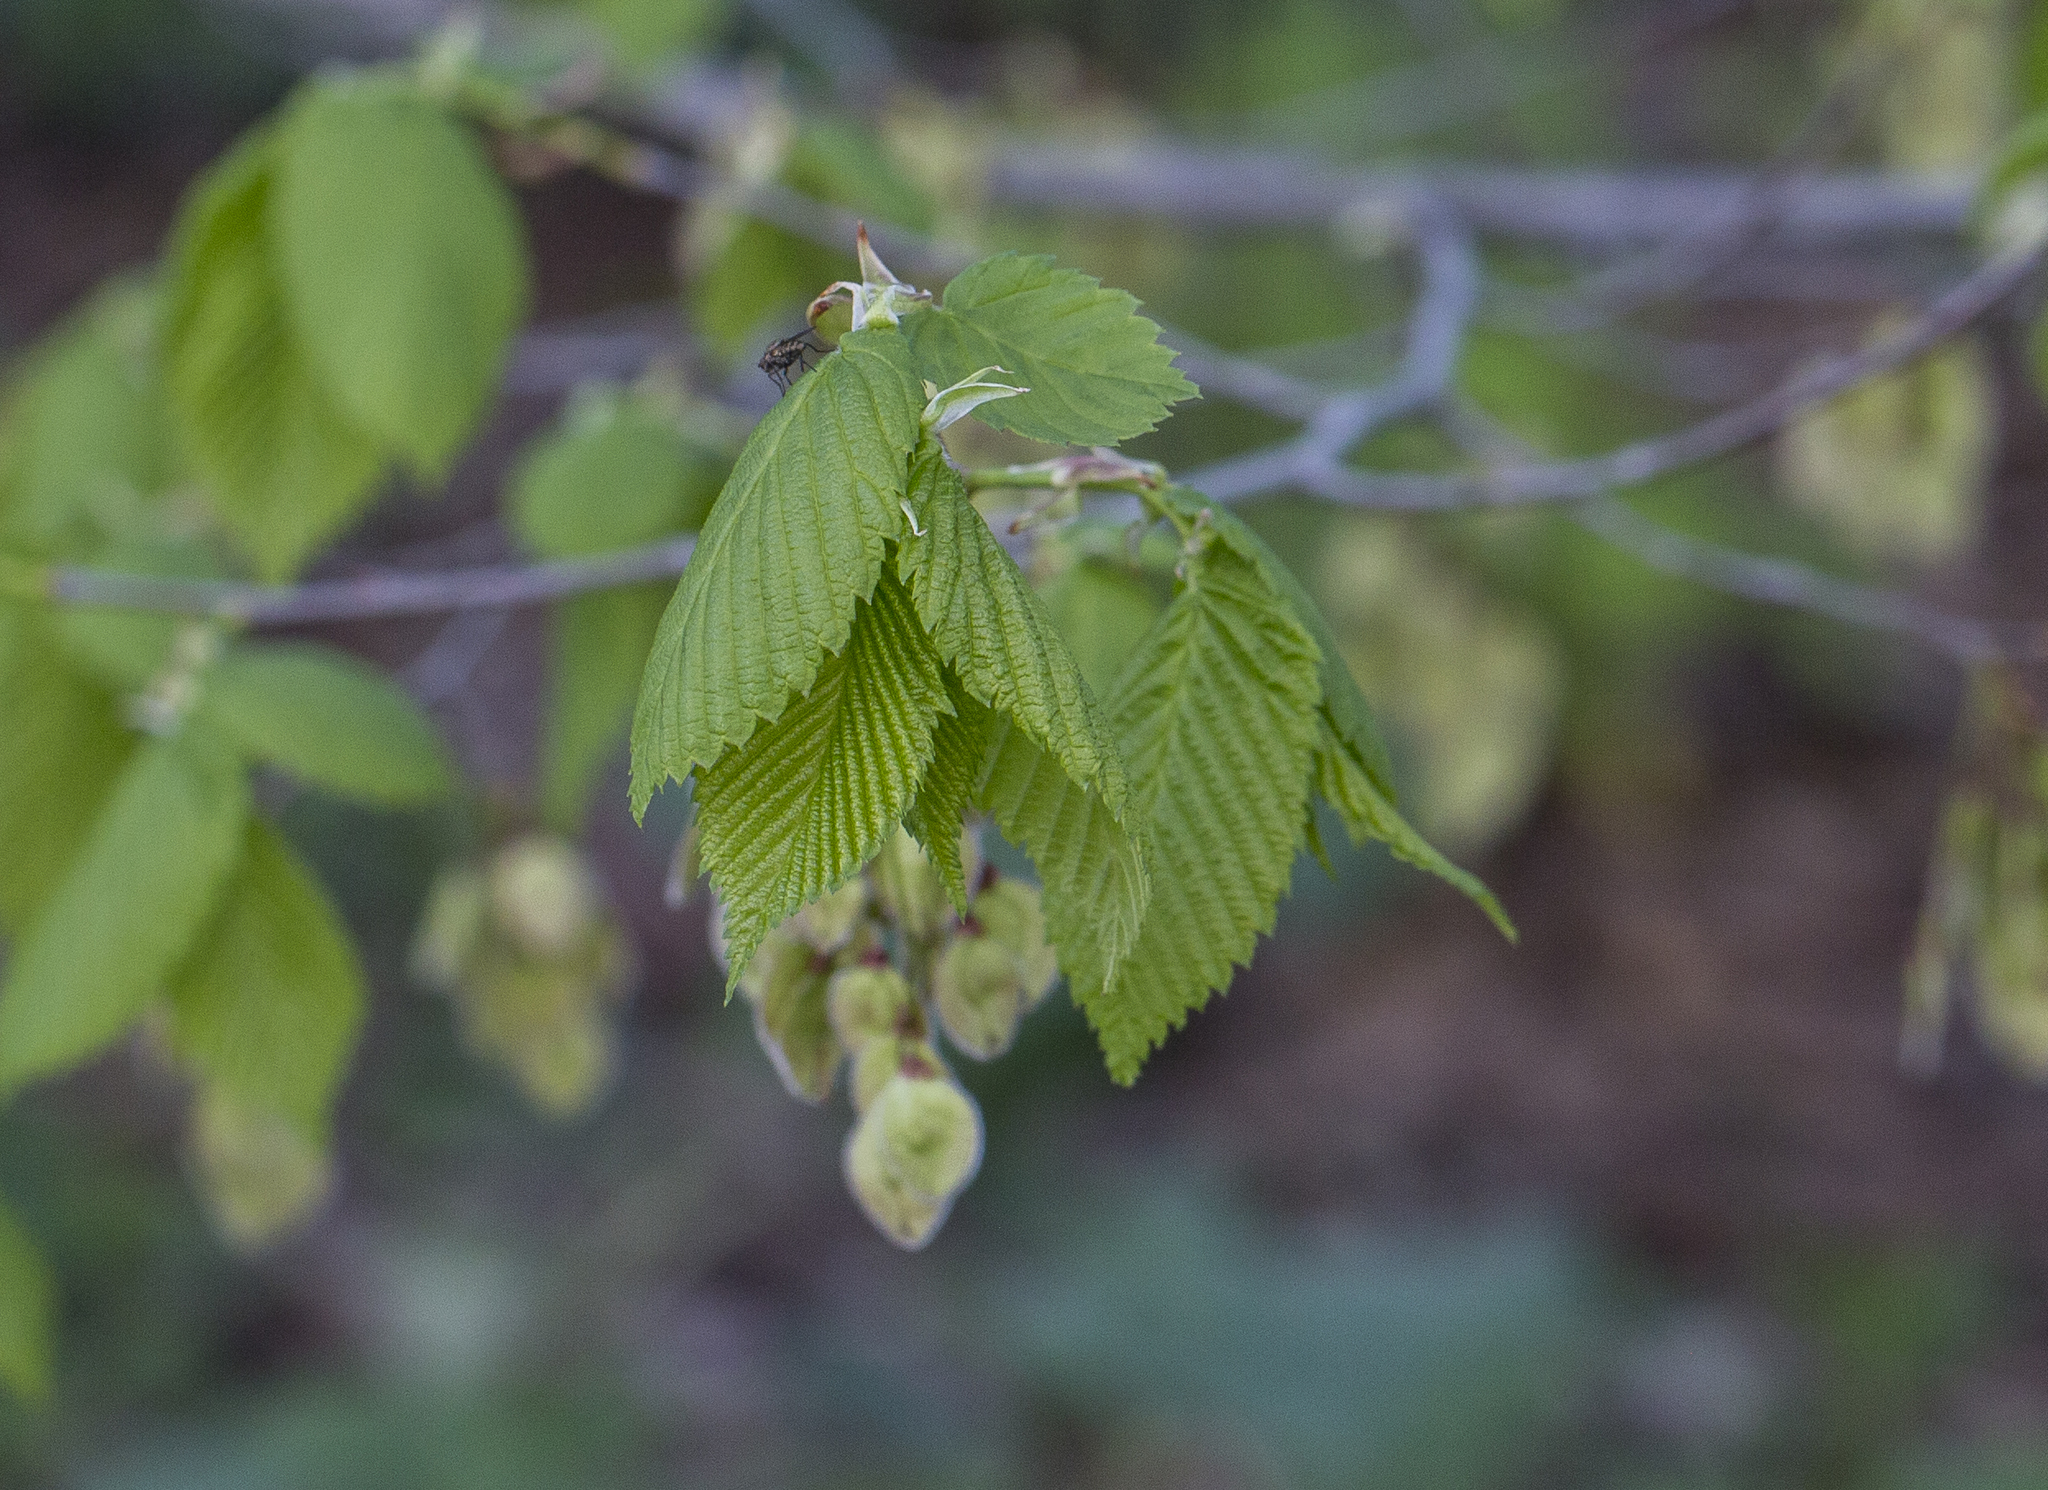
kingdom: Plantae
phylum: Tracheophyta
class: Magnoliopsida
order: Rosales
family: Ulmaceae
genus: Ulmus
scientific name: Ulmus laevis
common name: European white-elm
